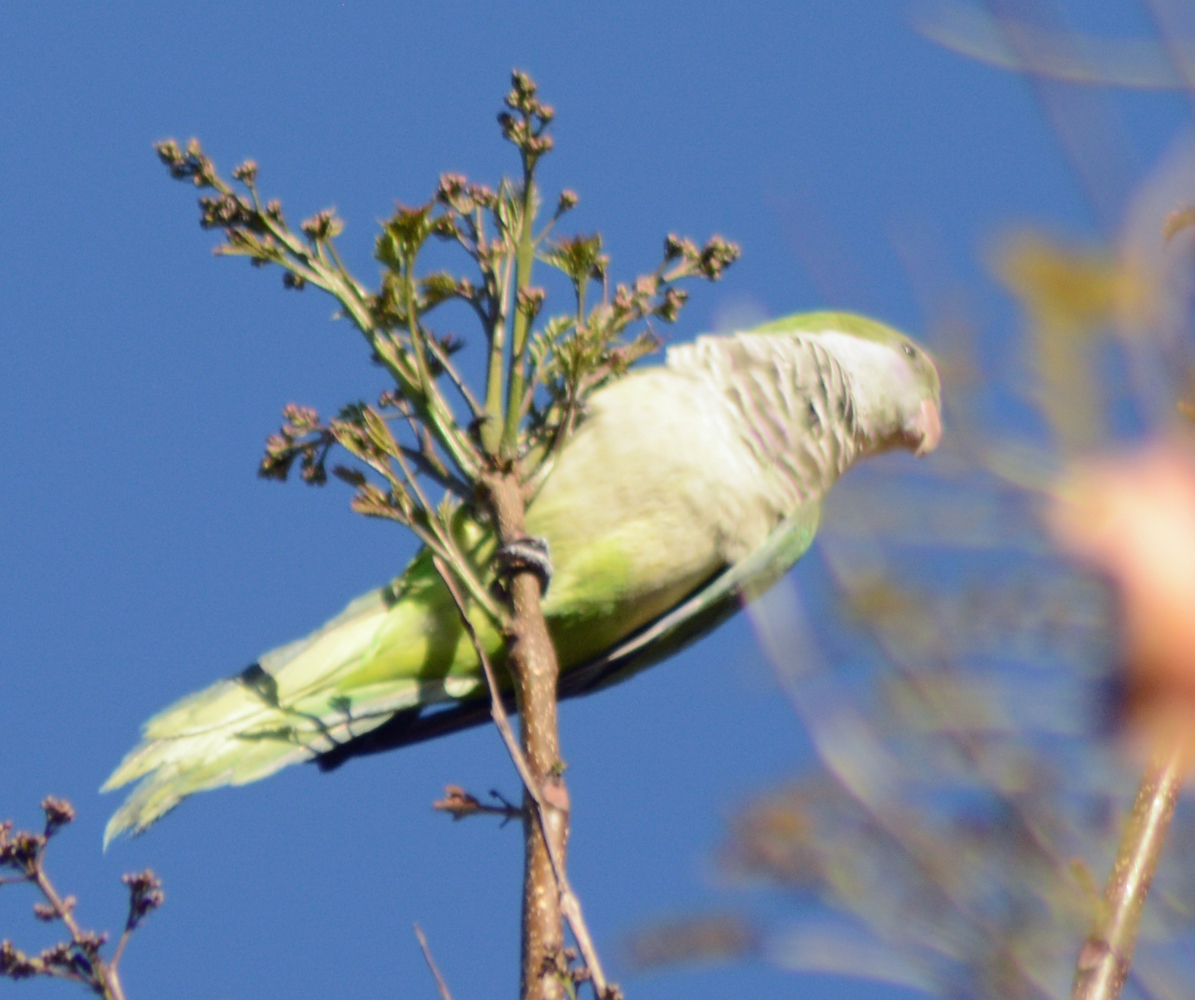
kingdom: Animalia
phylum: Chordata
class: Aves
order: Psittaciformes
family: Psittacidae
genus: Myiopsitta
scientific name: Myiopsitta monachus
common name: Monk parakeet
